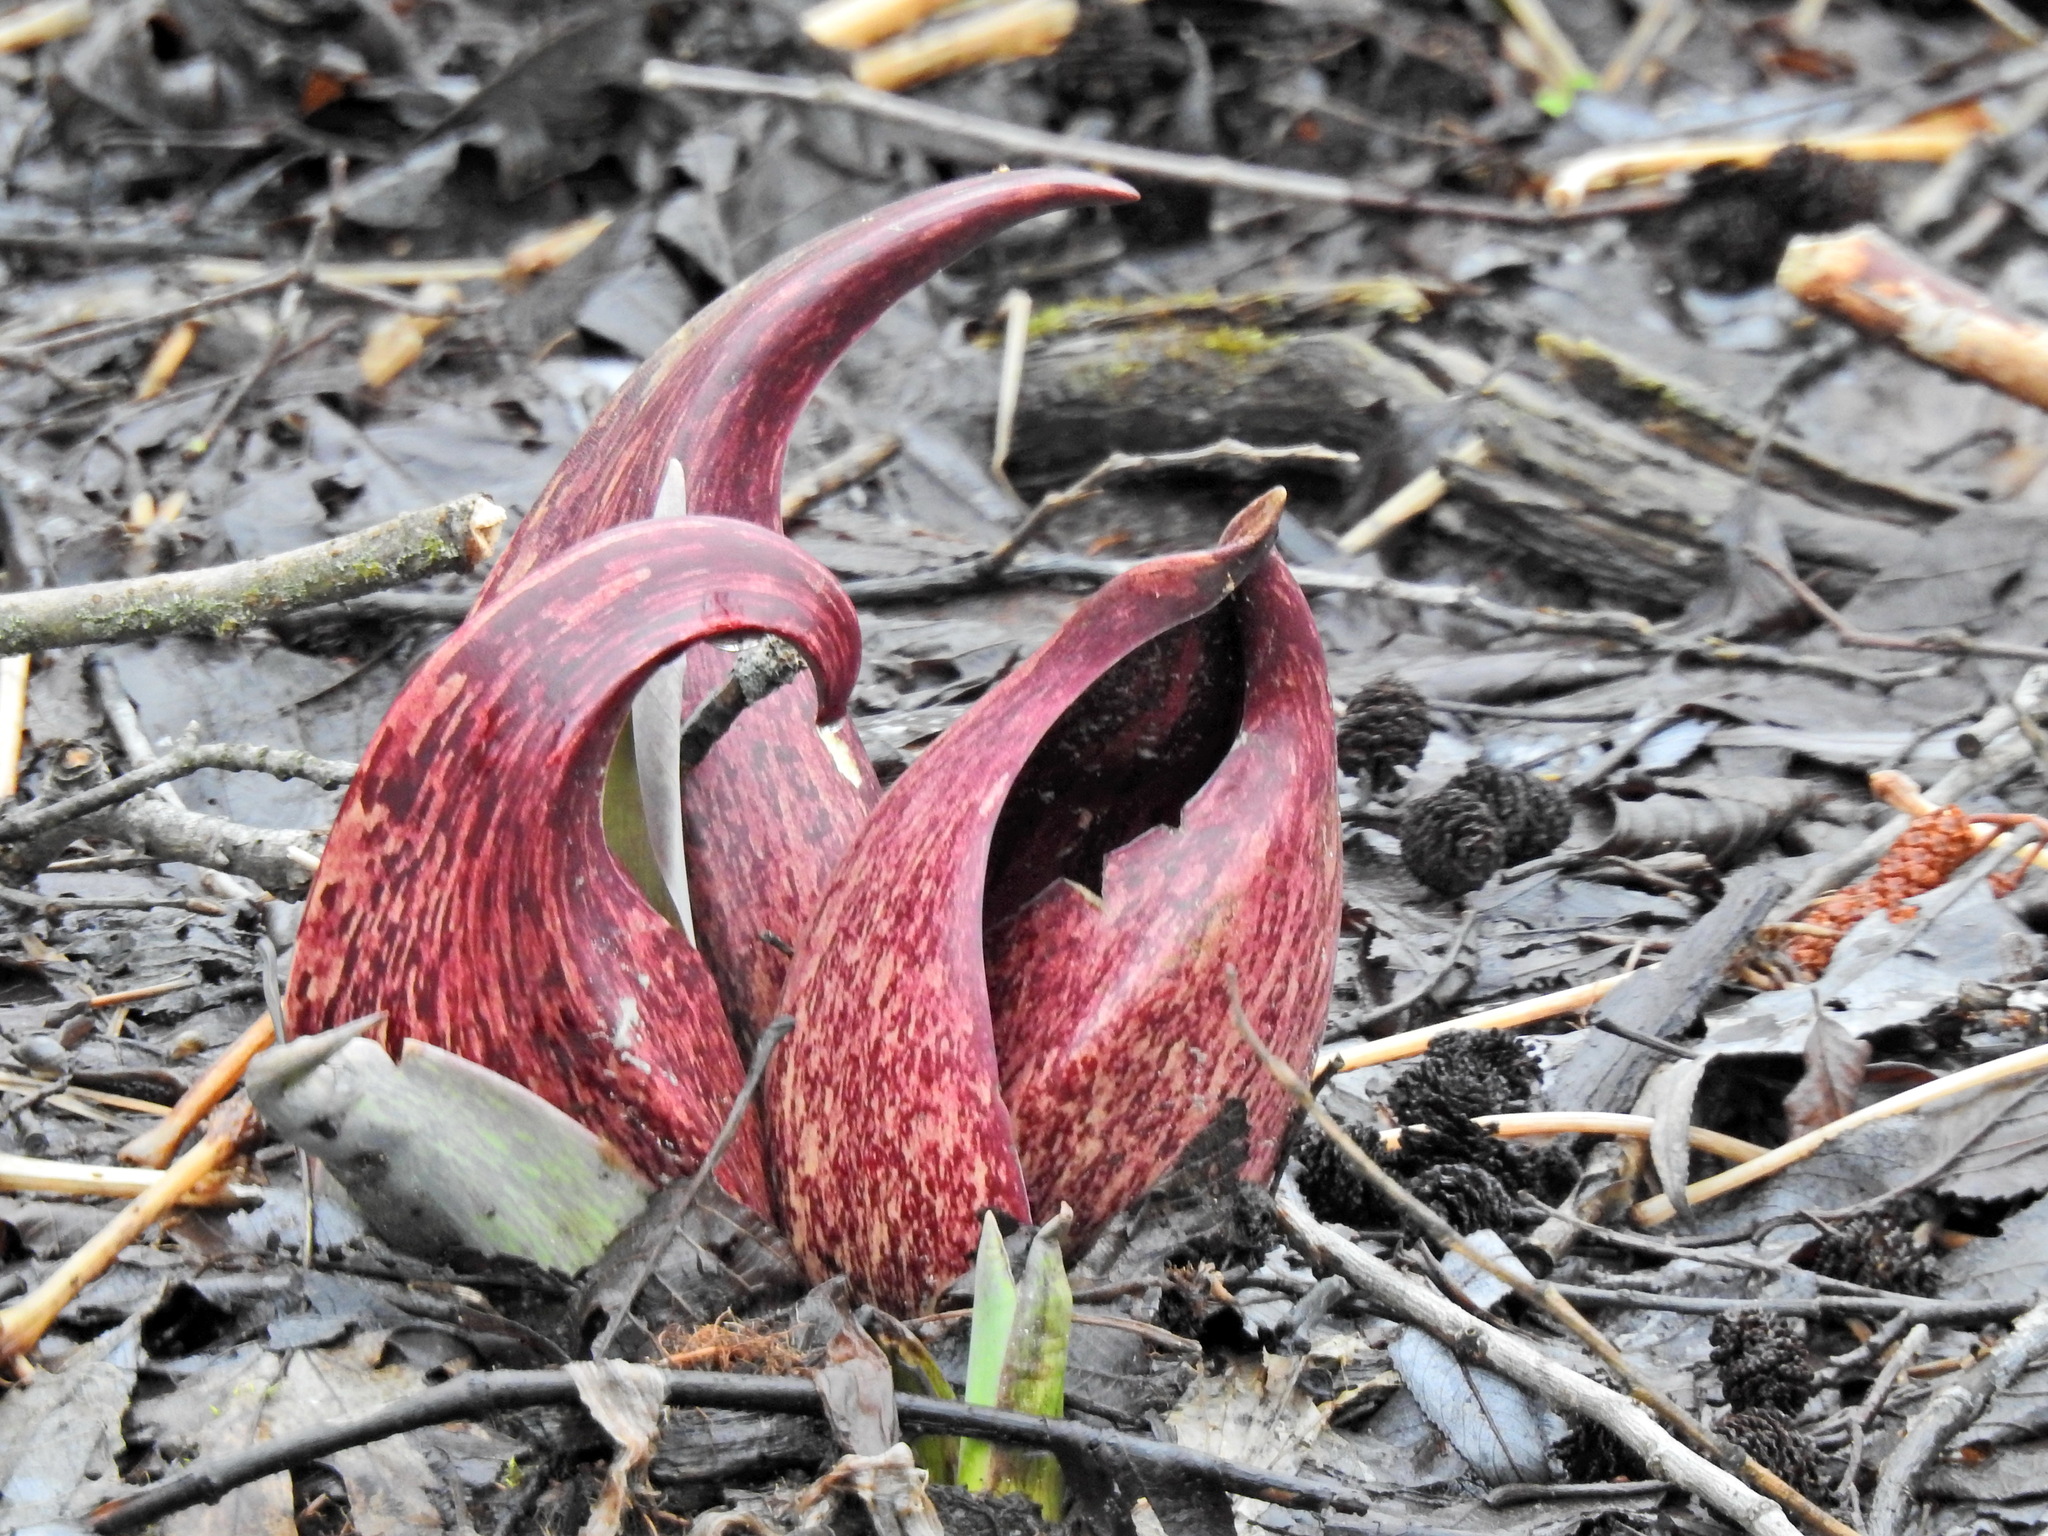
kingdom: Plantae
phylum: Tracheophyta
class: Liliopsida
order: Alismatales
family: Araceae
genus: Symplocarpus
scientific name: Symplocarpus foetidus
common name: Eastern skunk cabbage
